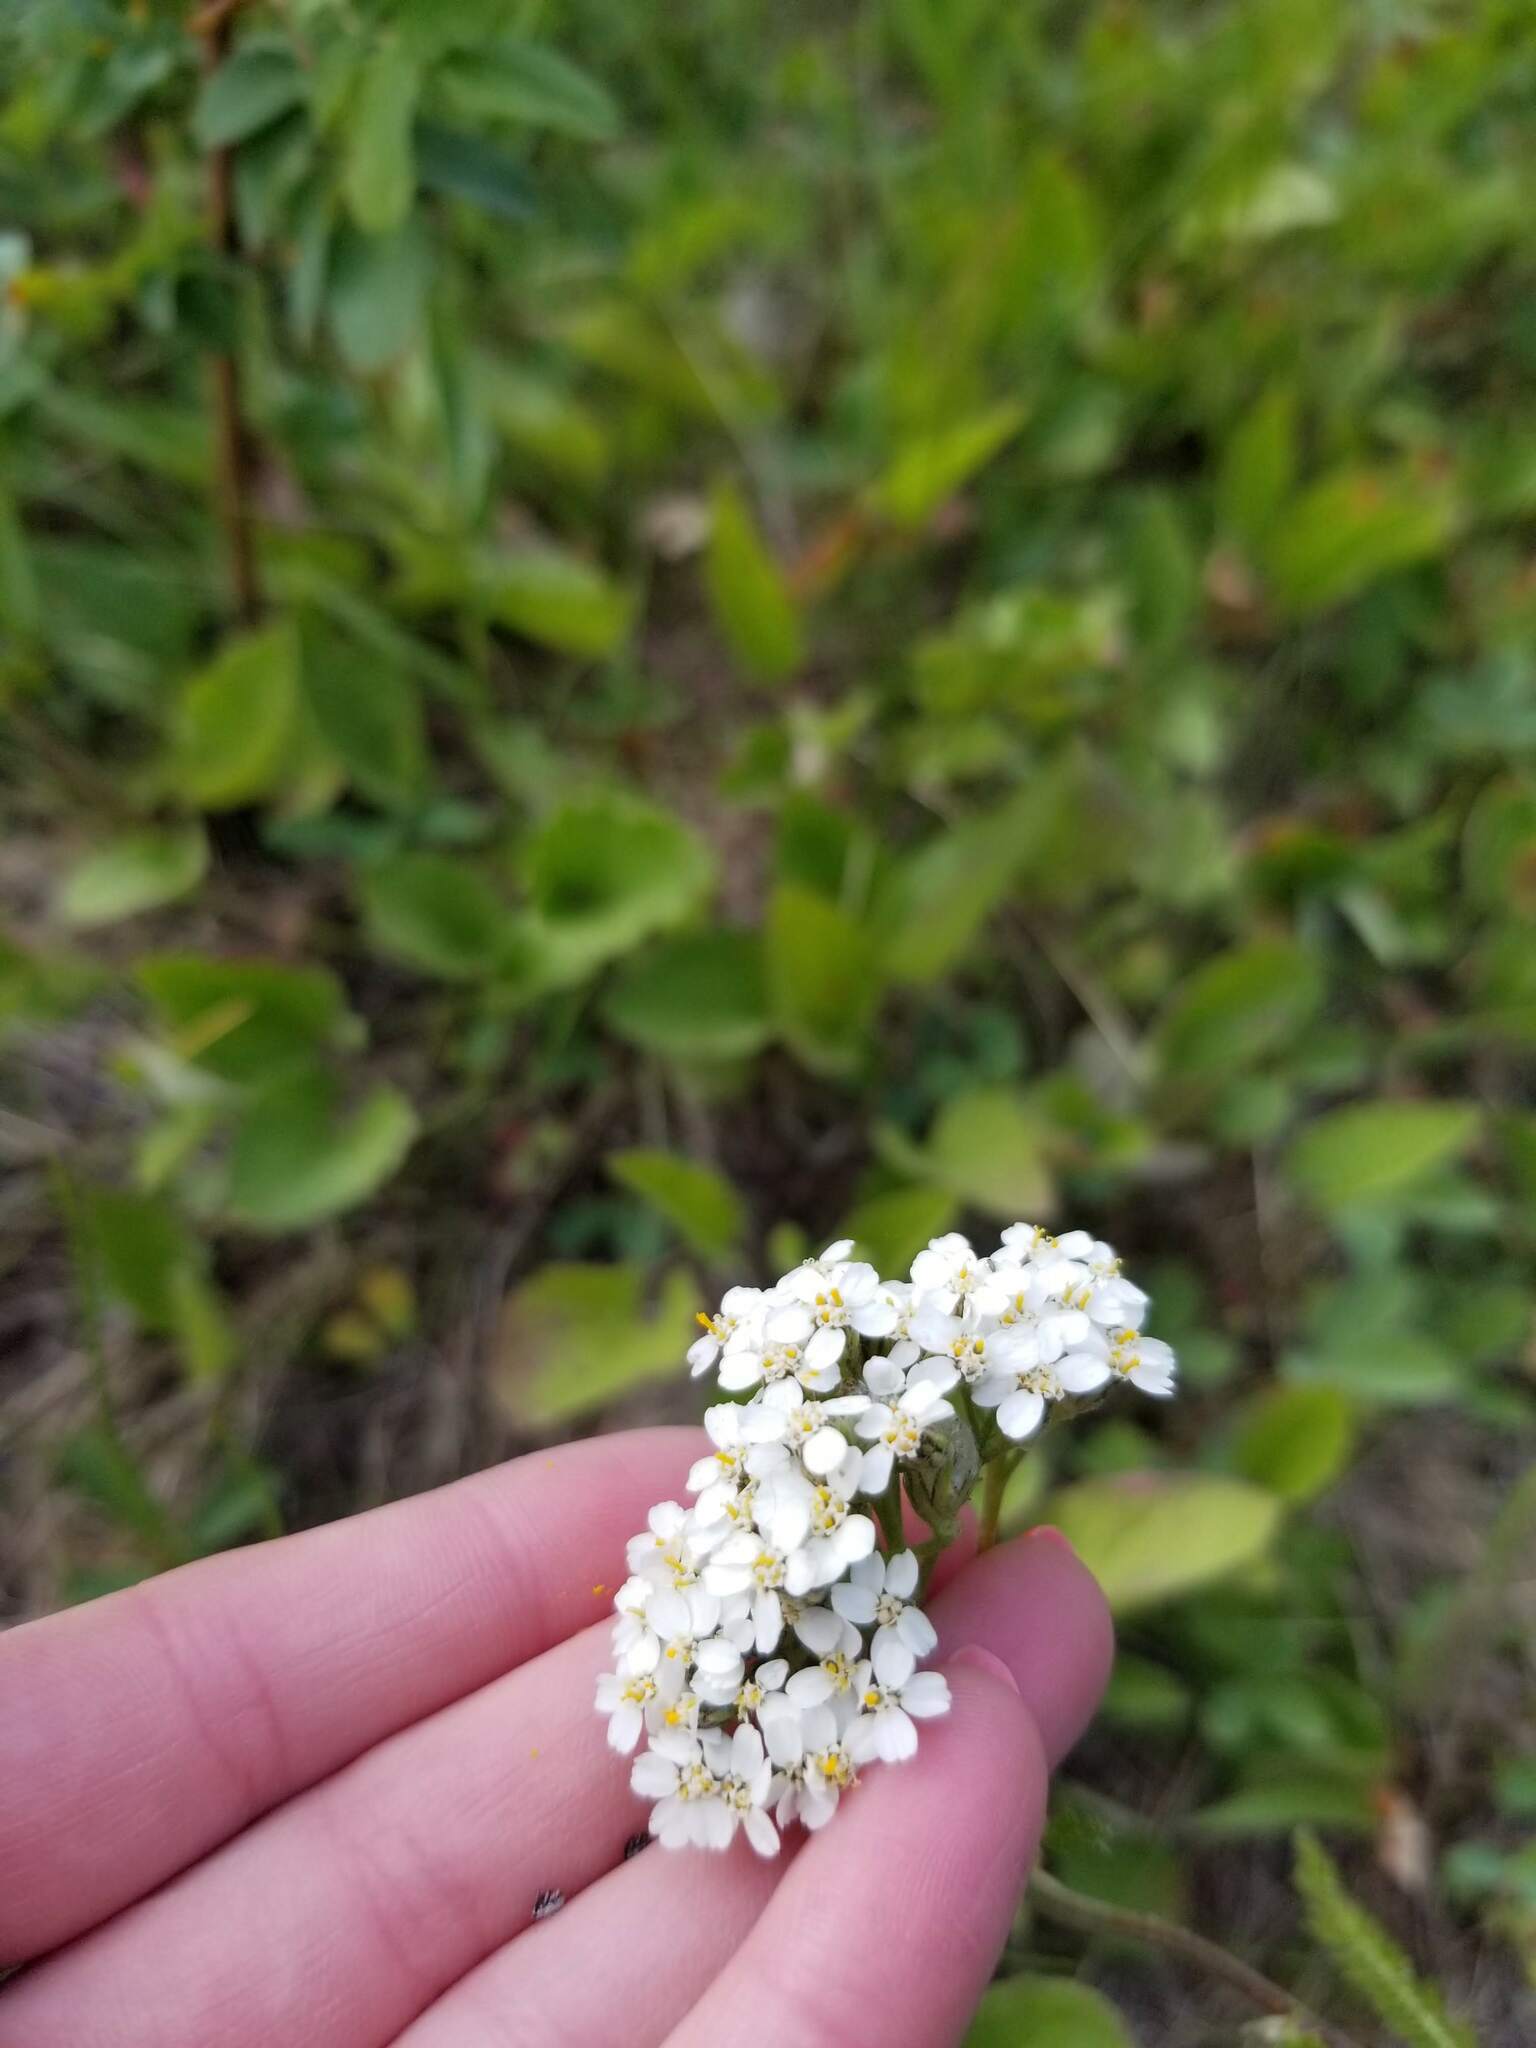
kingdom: Animalia
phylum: Arthropoda
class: Arachnida
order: Trombidiformes
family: Eriophyidae
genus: Aceria
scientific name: Aceria kiefferi
